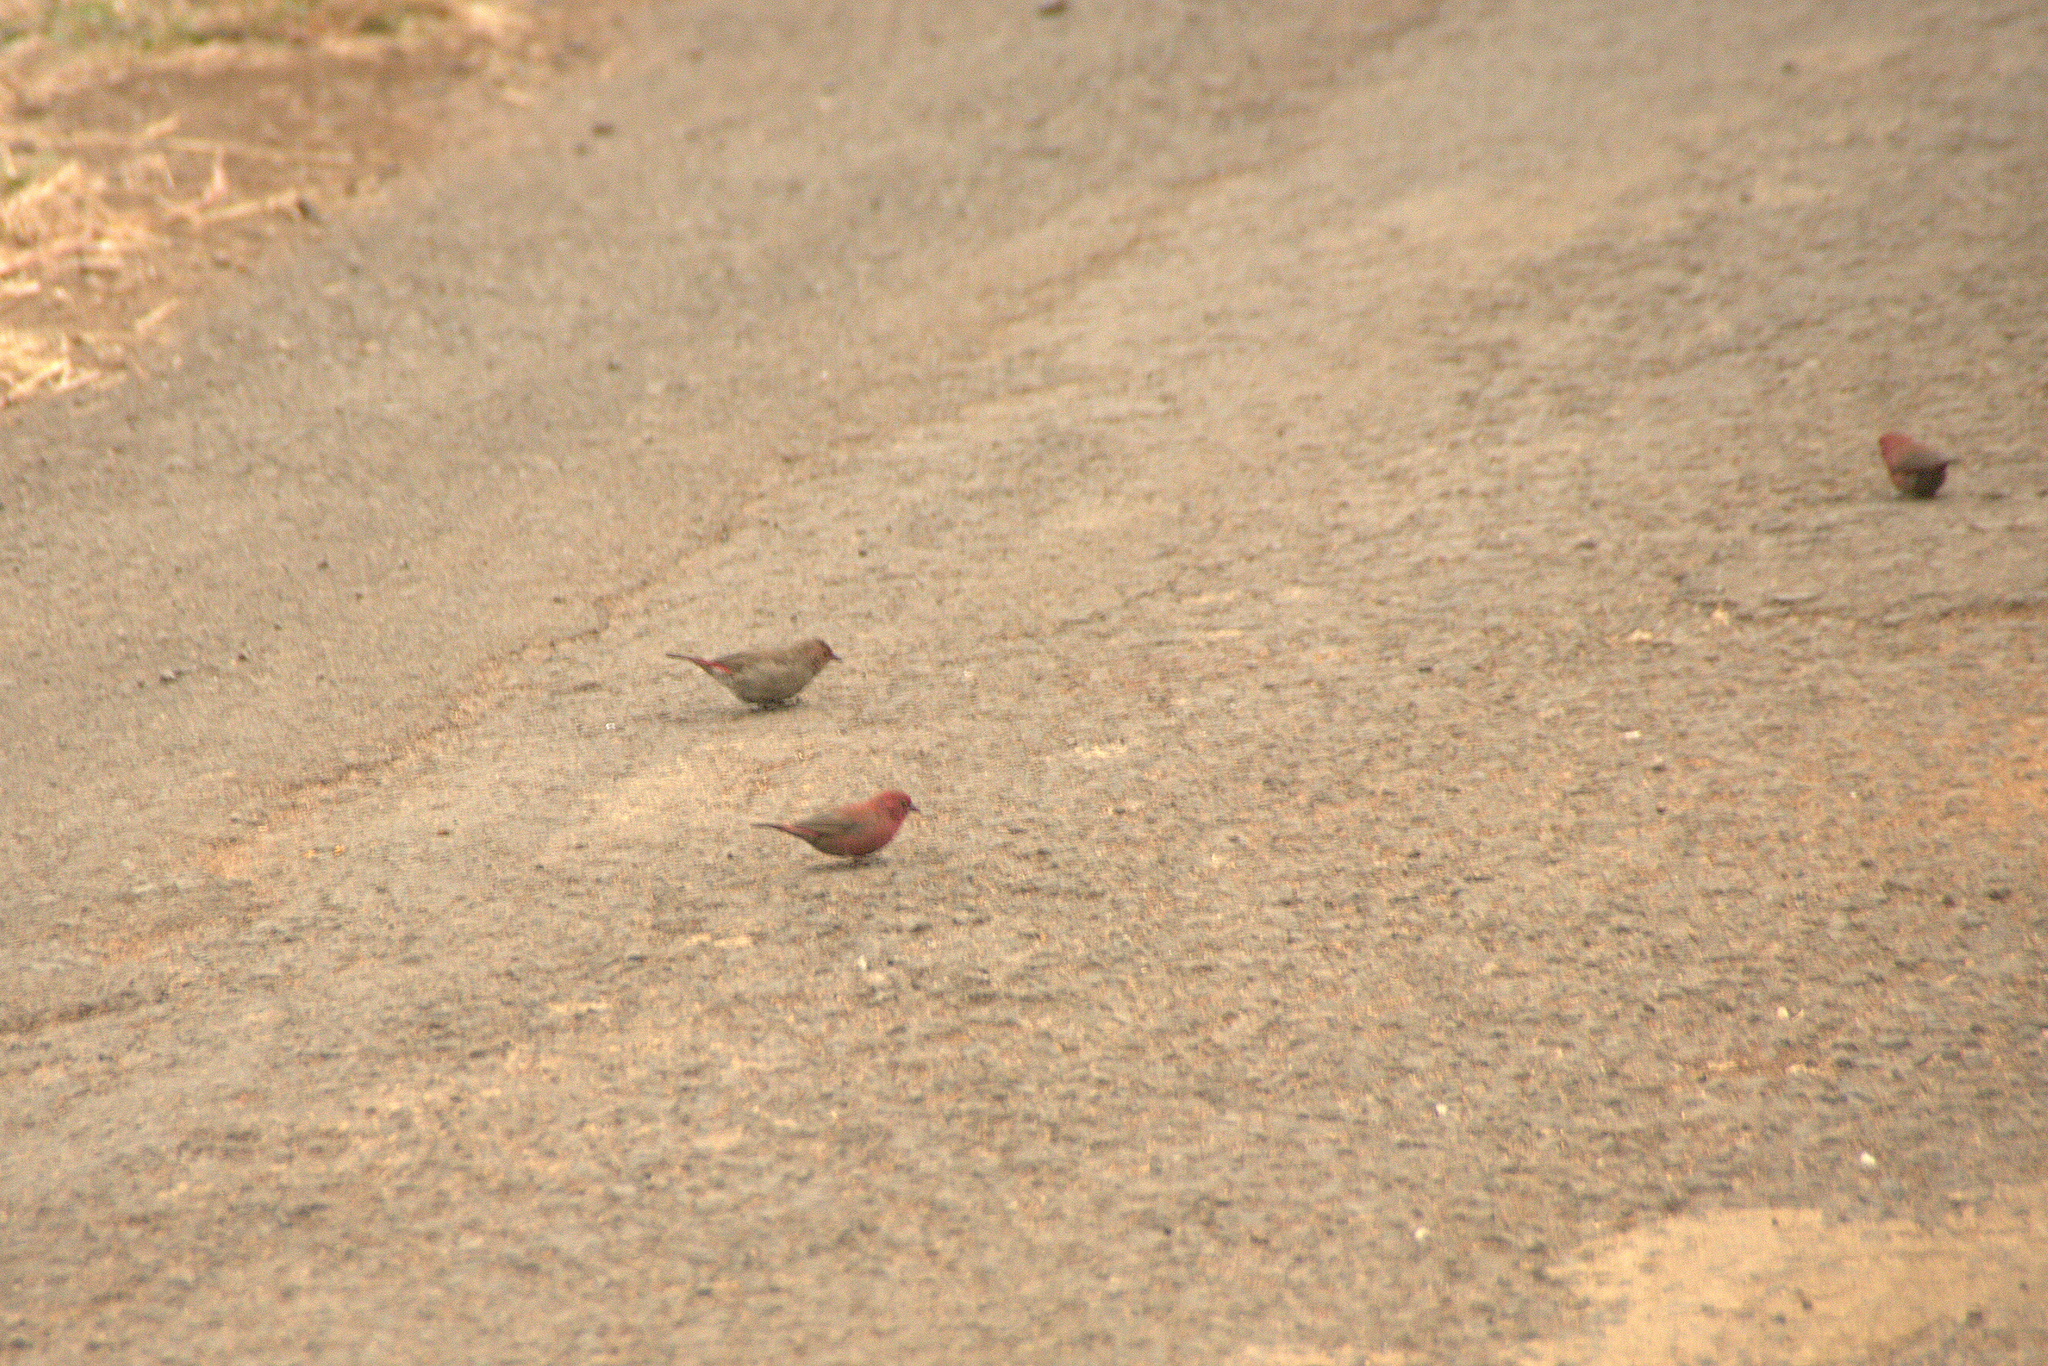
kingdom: Animalia
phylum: Chordata
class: Aves
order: Passeriformes
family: Estrildidae
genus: Lagonosticta
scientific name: Lagonosticta senegala
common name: Red-billed firefinch
